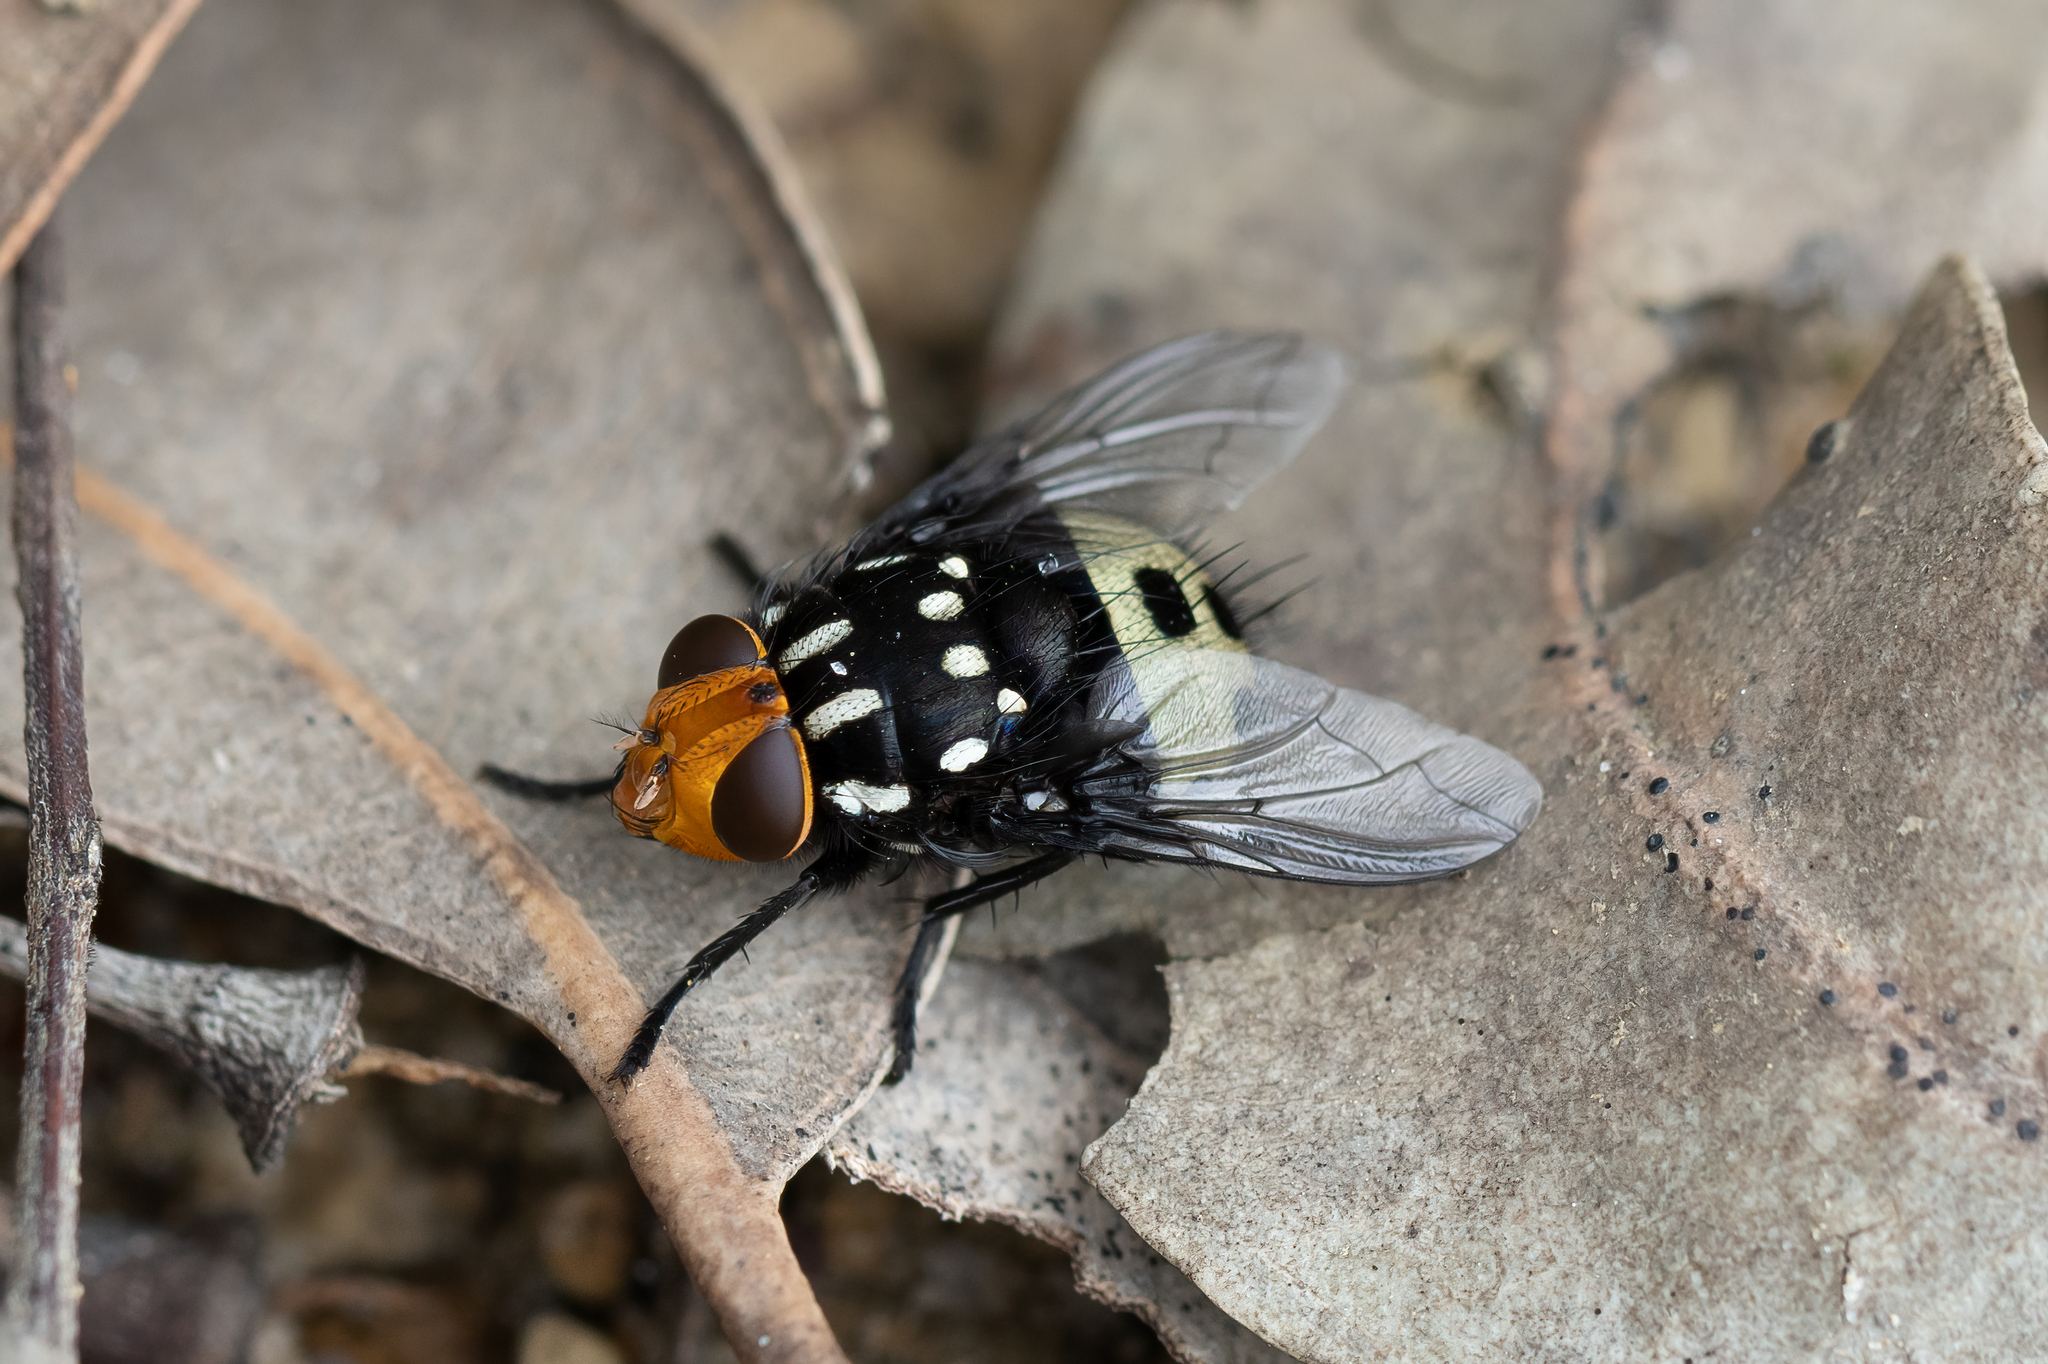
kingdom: Animalia
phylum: Arthropoda
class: Insecta
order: Diptera
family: Calliphoridae
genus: Amenia
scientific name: Amenia nigromaculata
